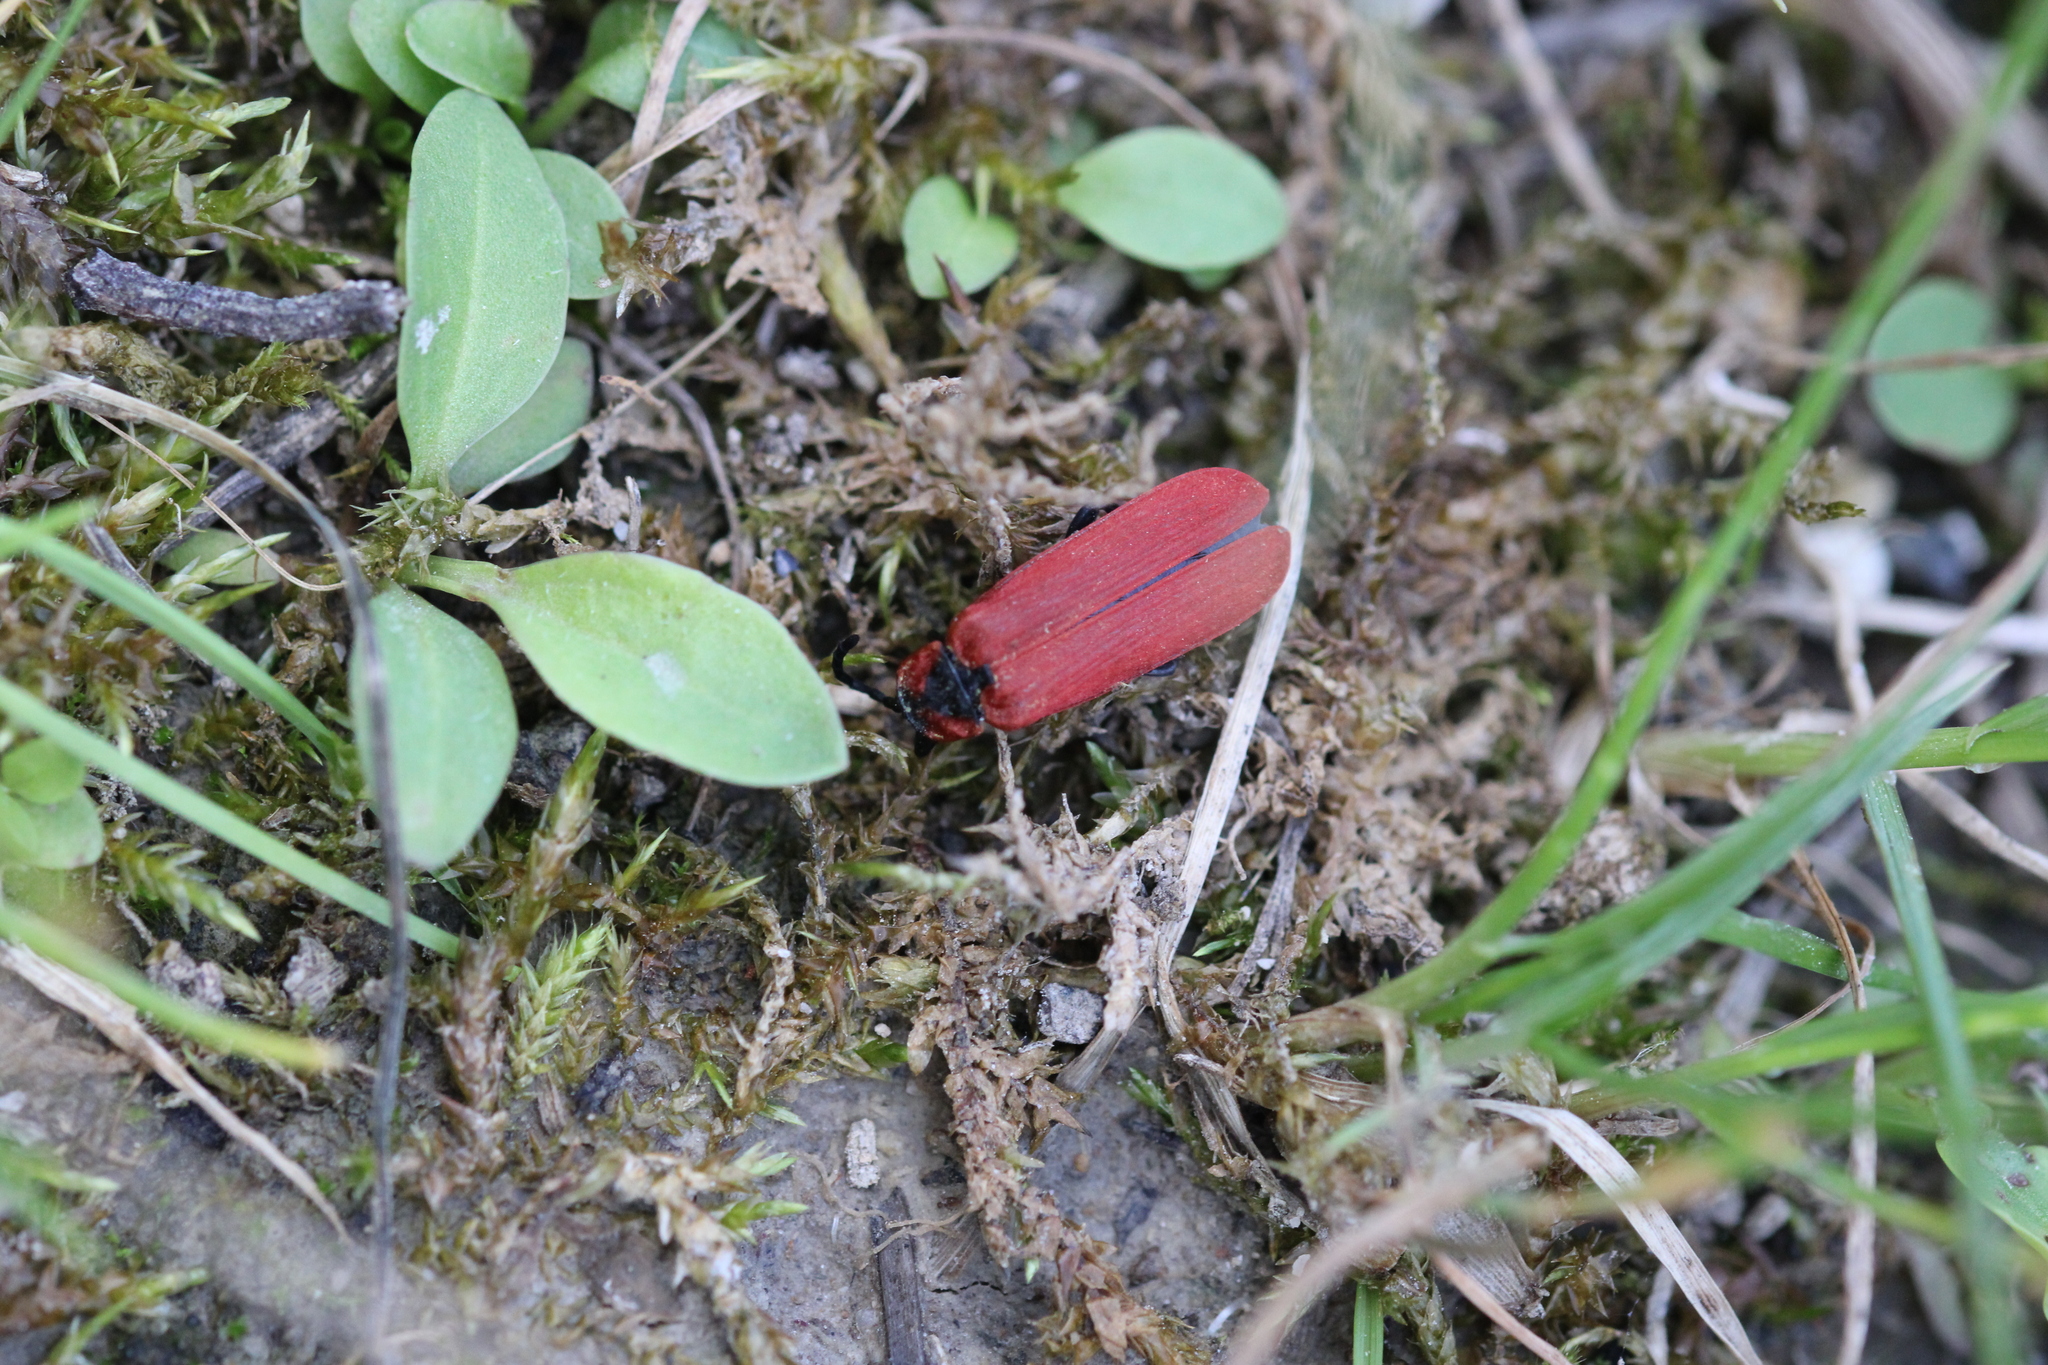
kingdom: Animalia
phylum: Arthropoda
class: Insecta
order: Coleoptera
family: Lycidae
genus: Lygistopterus
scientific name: Lygistopterus sanguineus
